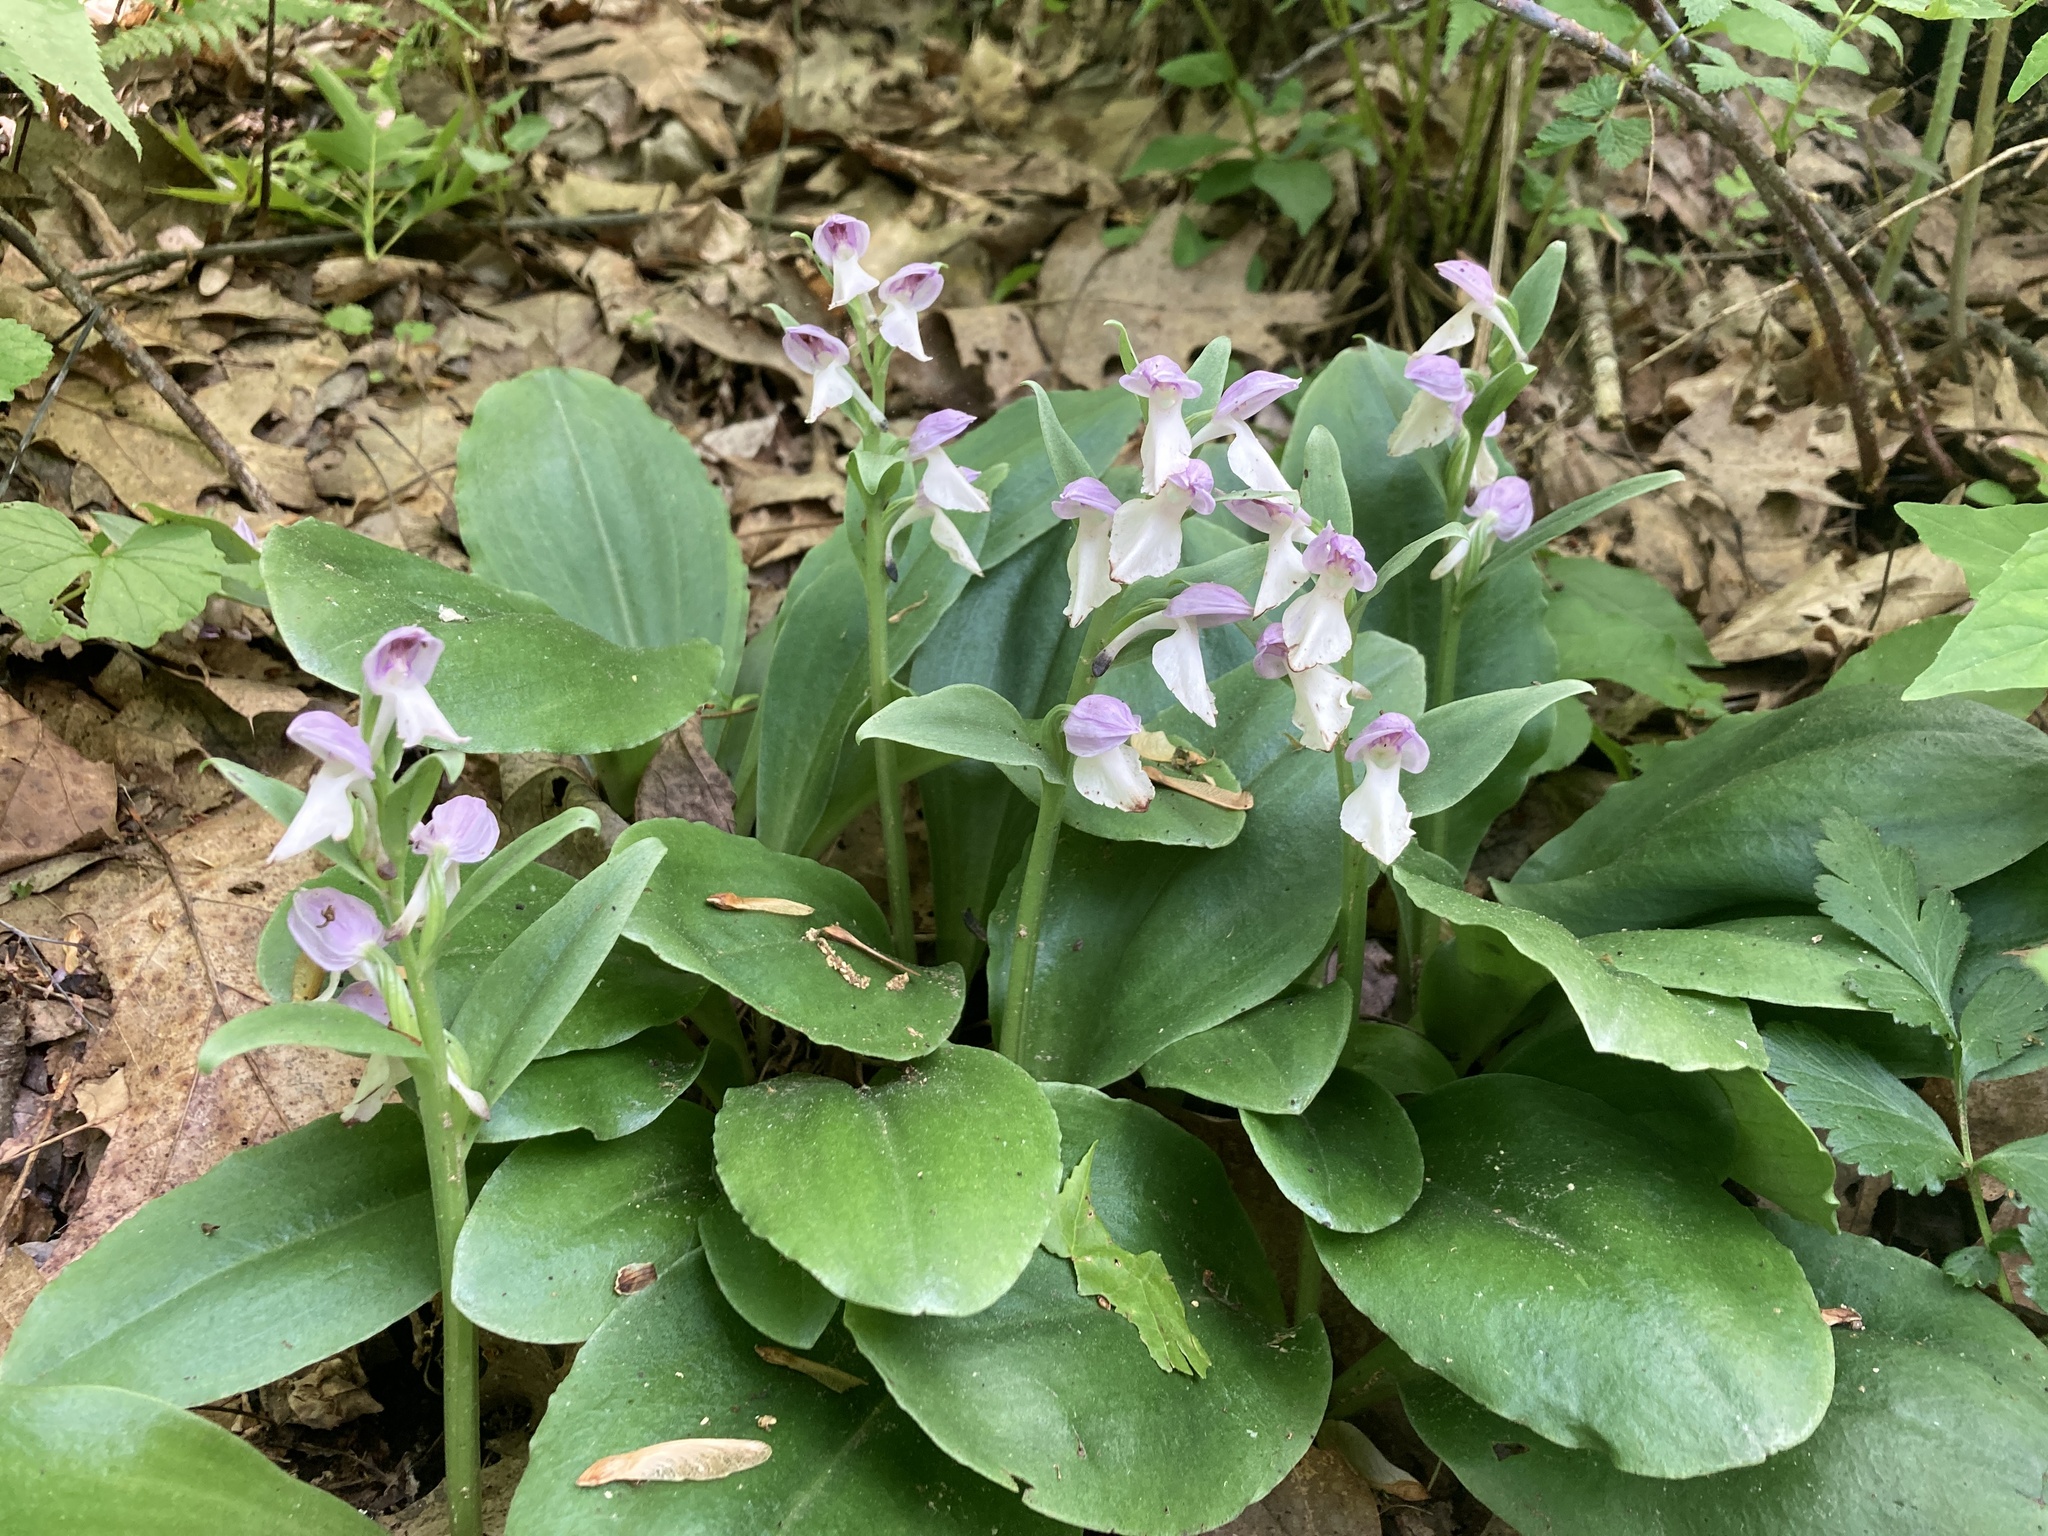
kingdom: Plantae
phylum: Tracheophyta
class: Liliopsida
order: Asparagales
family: Orchidaceae
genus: Galearis
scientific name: Galearis spectabilis
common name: Purple-hooded orchis
